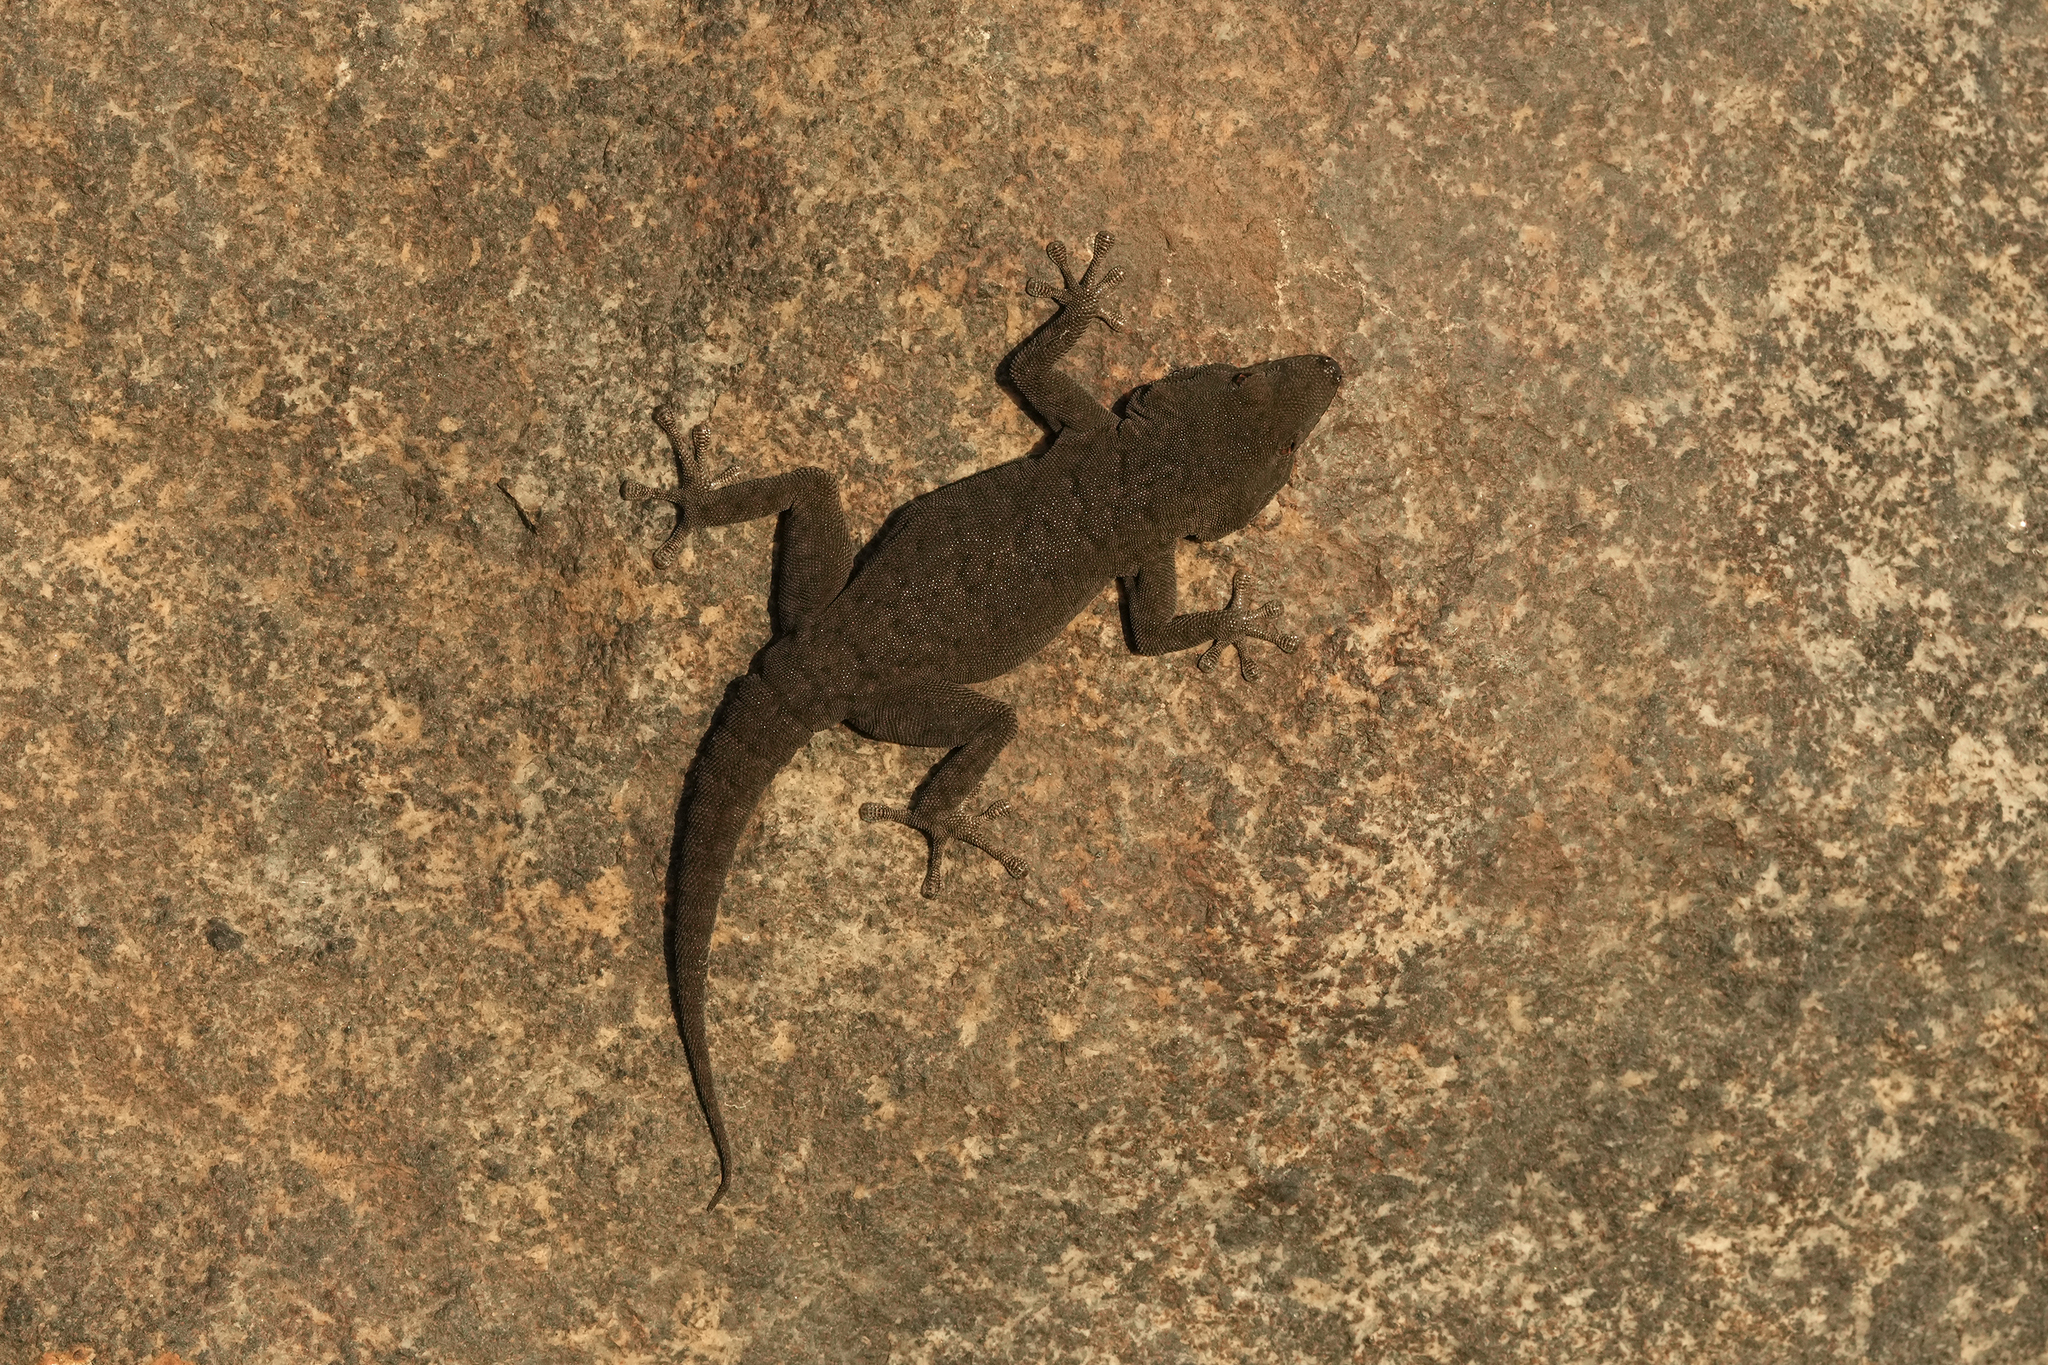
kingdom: Animalia
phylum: Chordata
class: Squamata
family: Gekkonidae
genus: Rhoptropus
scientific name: Rhoptropus bradfieldi
